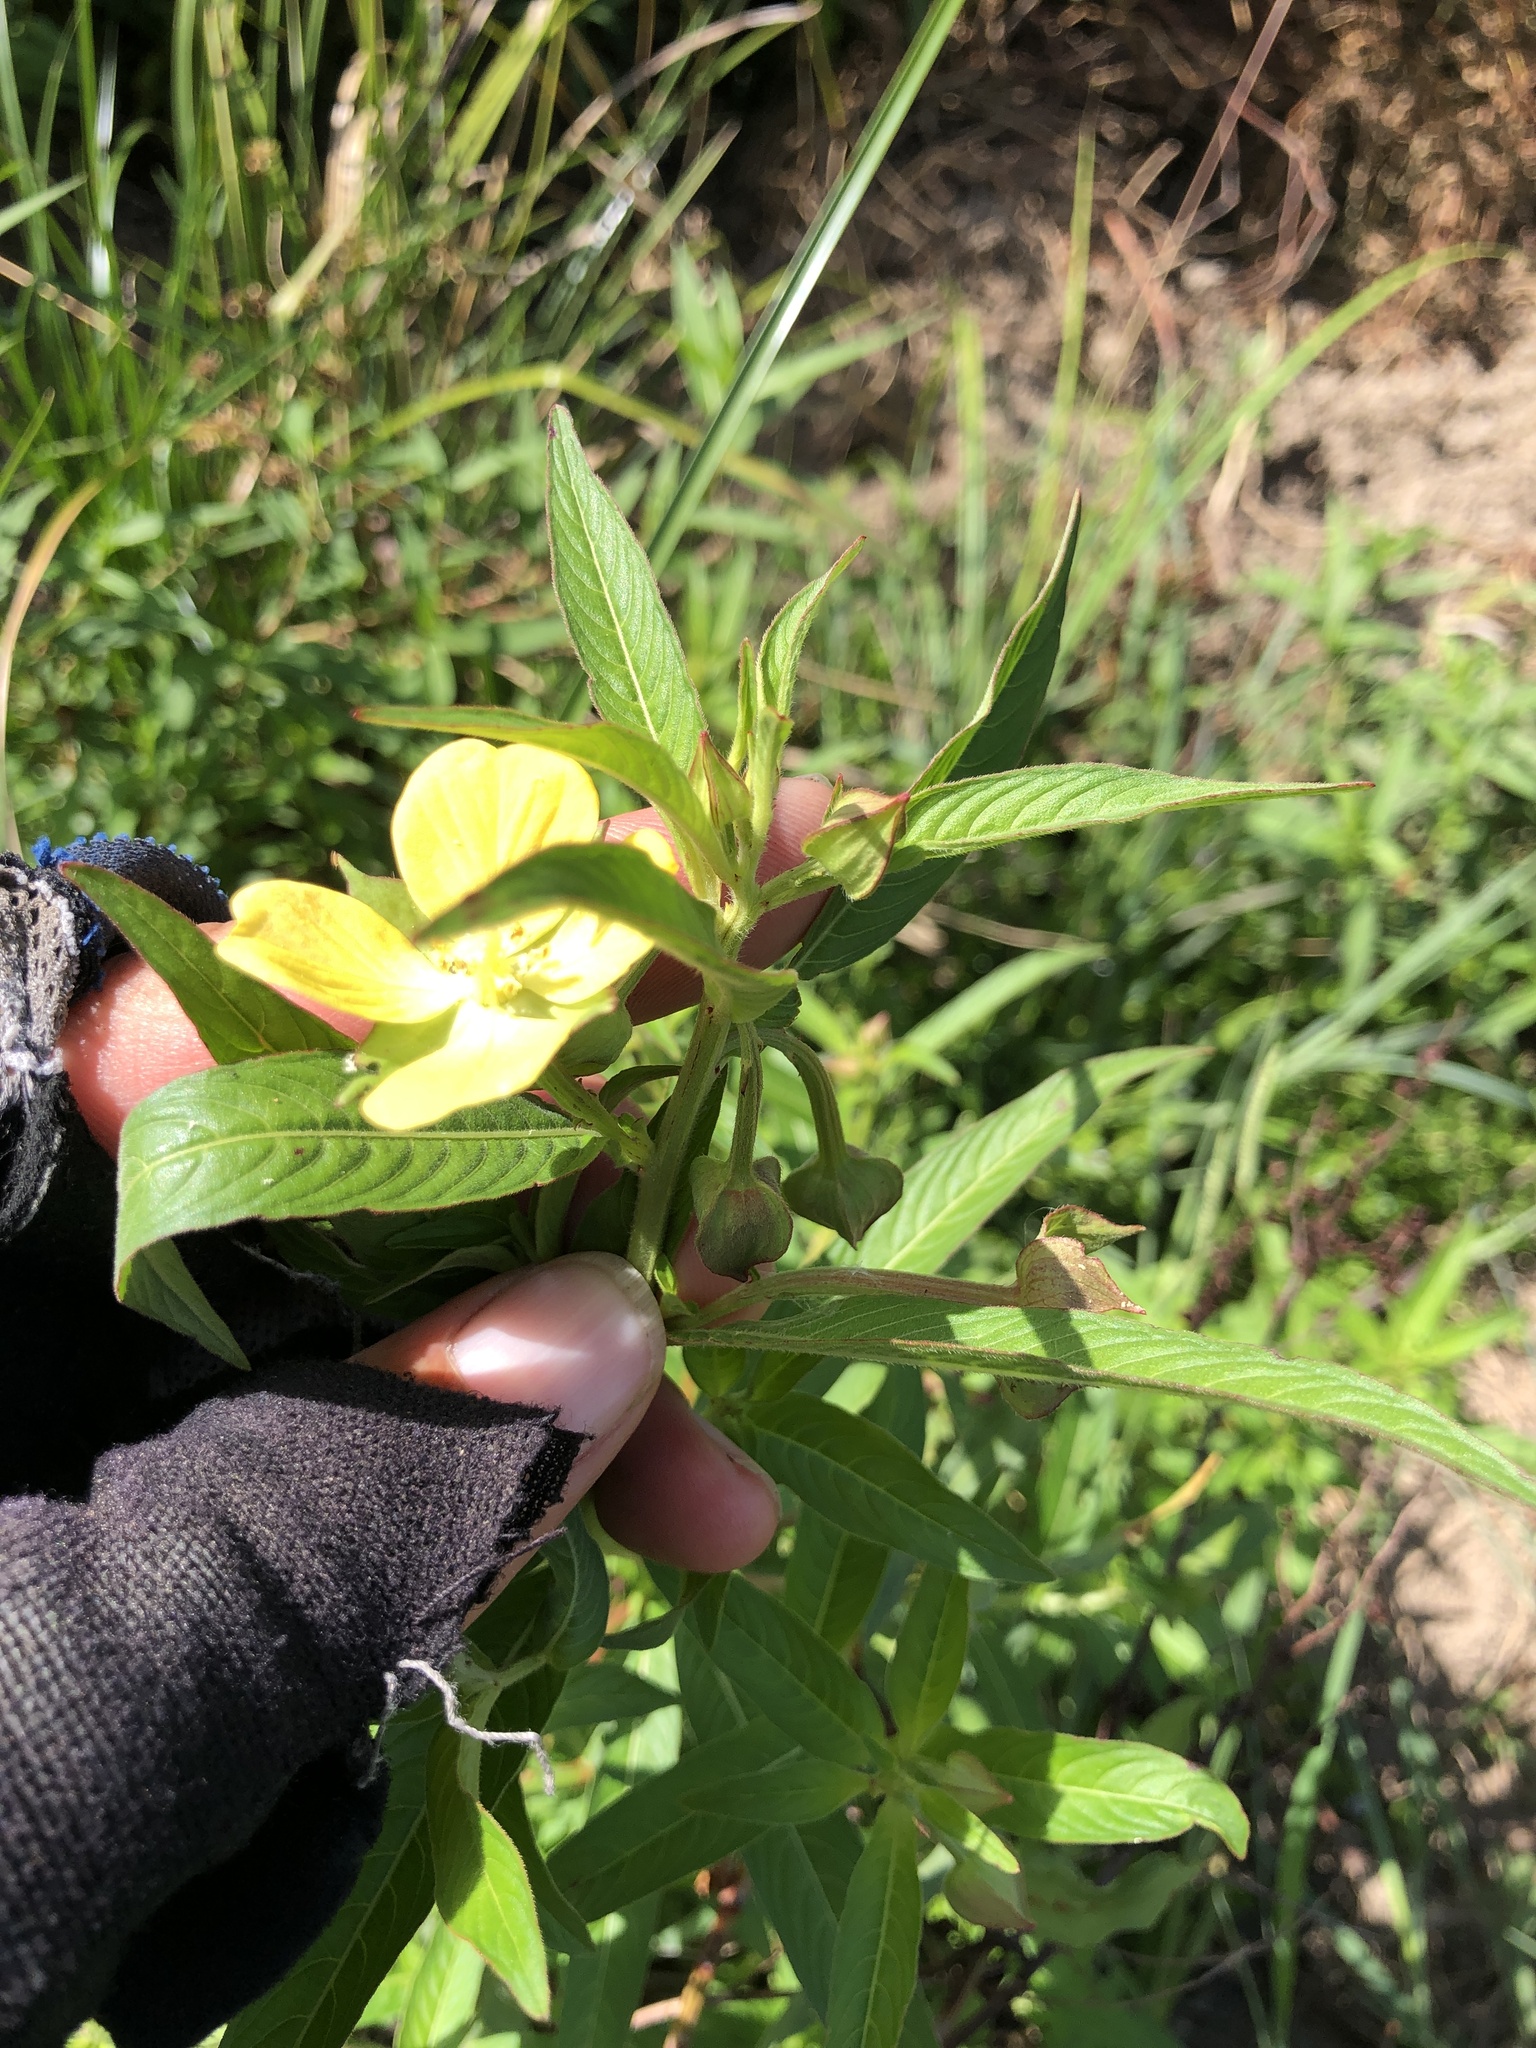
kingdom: Plantae
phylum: Tracheophyta
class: Magnoliopsida
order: Myrtales
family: Onagraceae
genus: Ludwigia
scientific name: Ludwigia octovalvis
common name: Water-primrose
